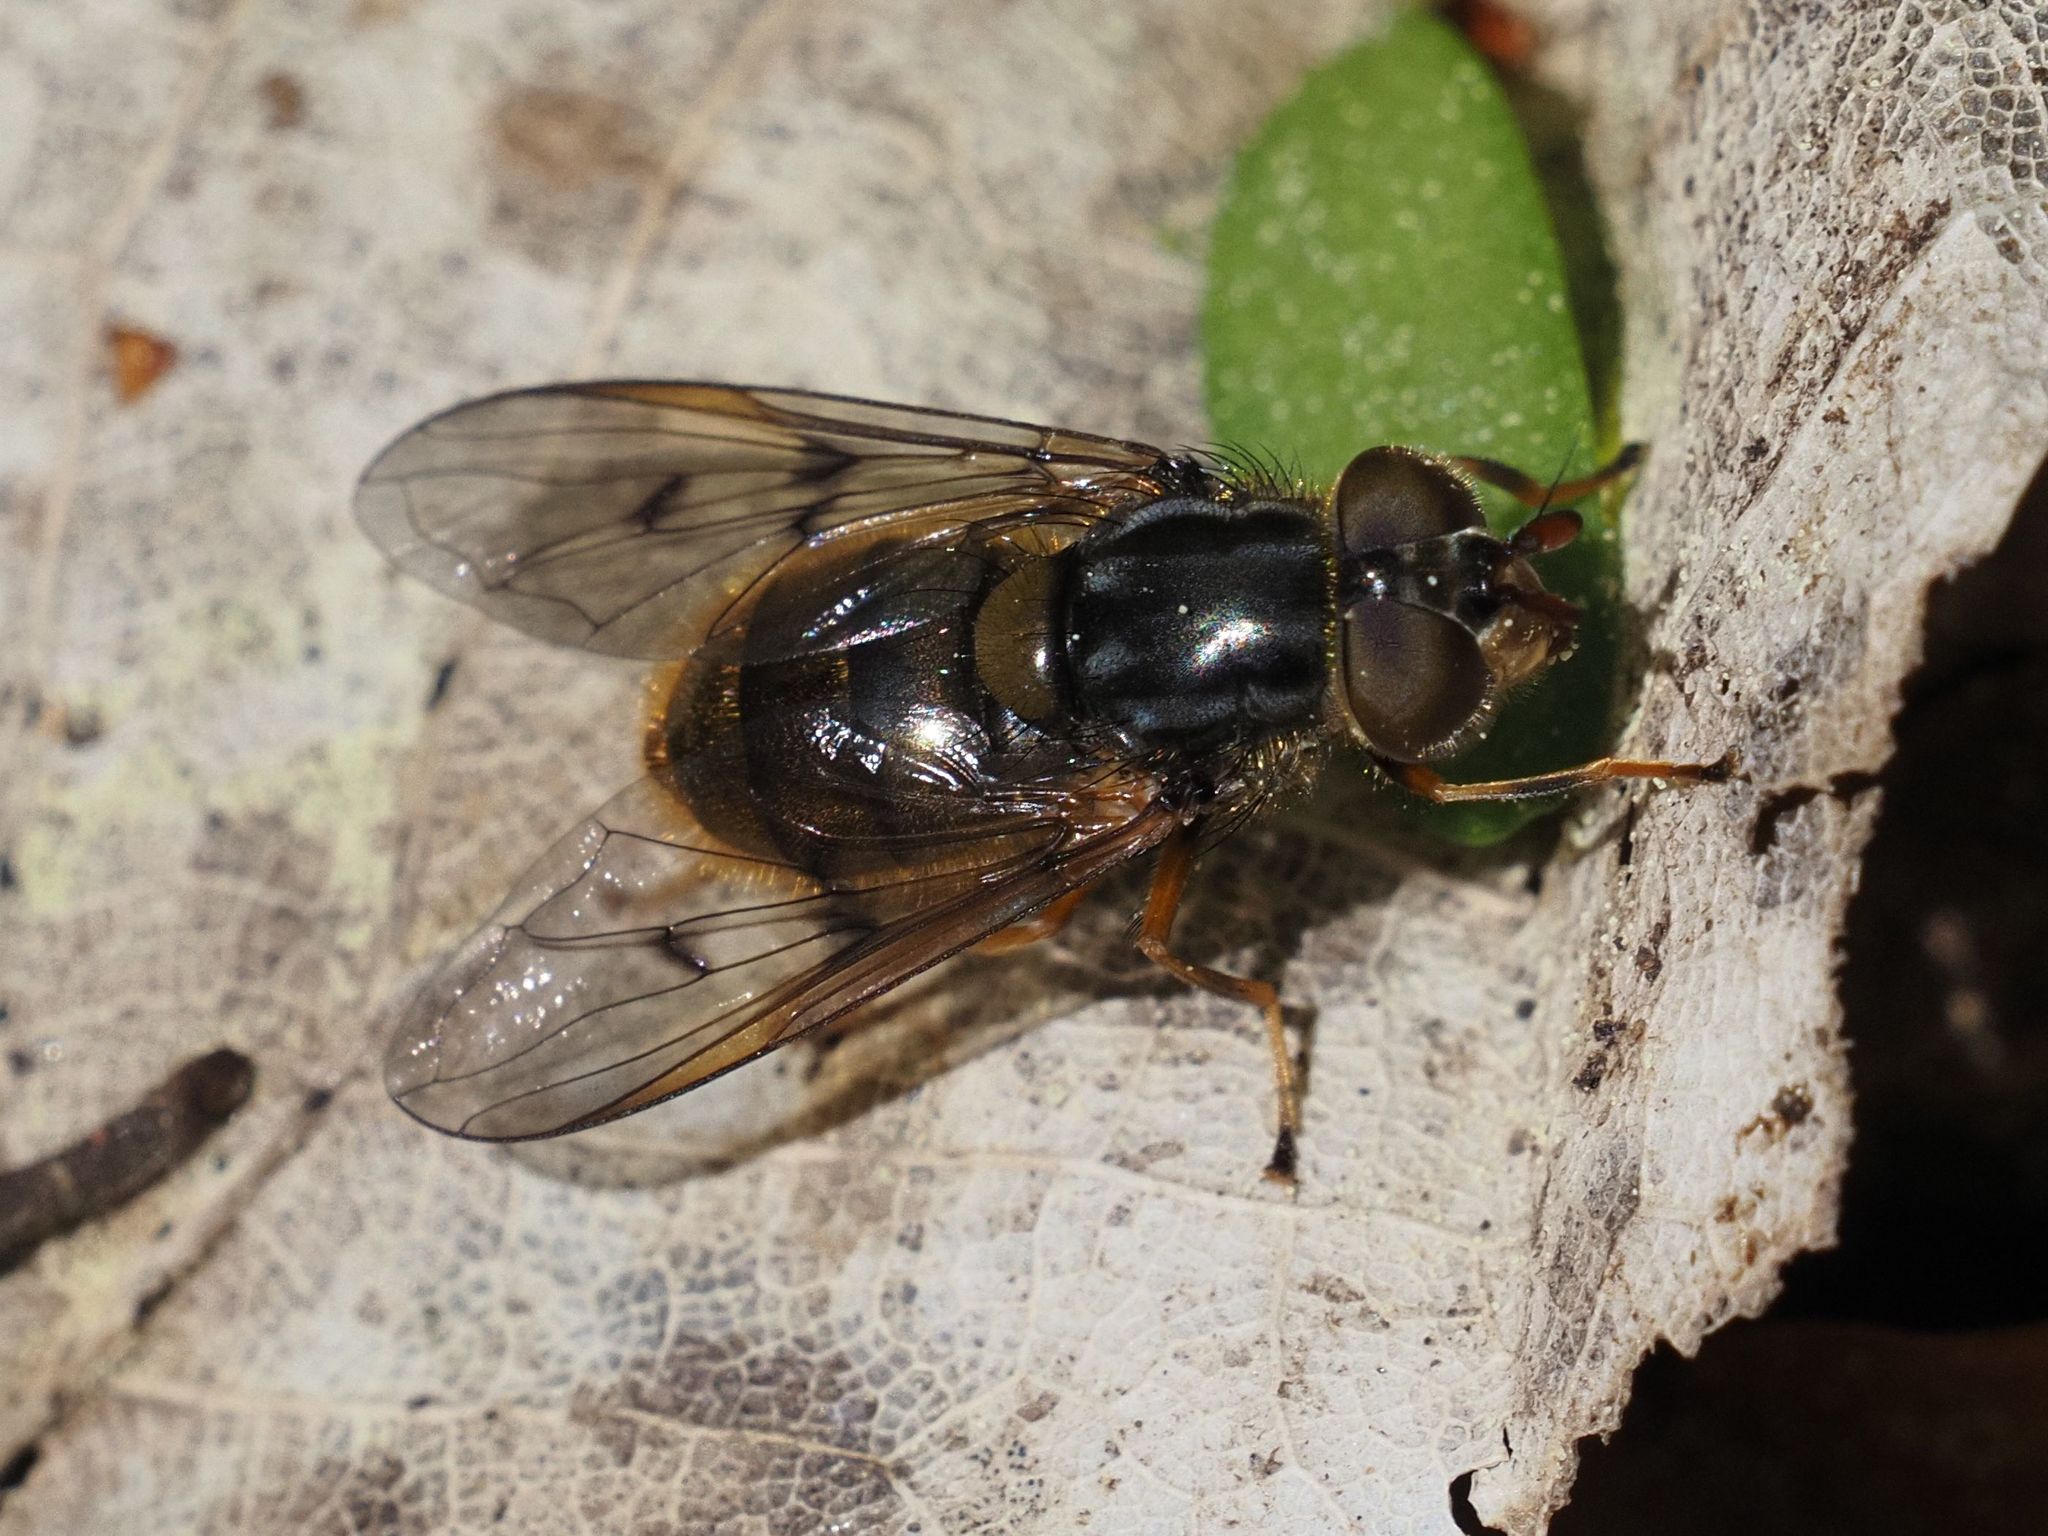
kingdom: Animalia
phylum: Arthropoda
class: Insecta
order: Diptera
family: Syrphidae
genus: Ferdinandea
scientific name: Ferdinandea cuprea
